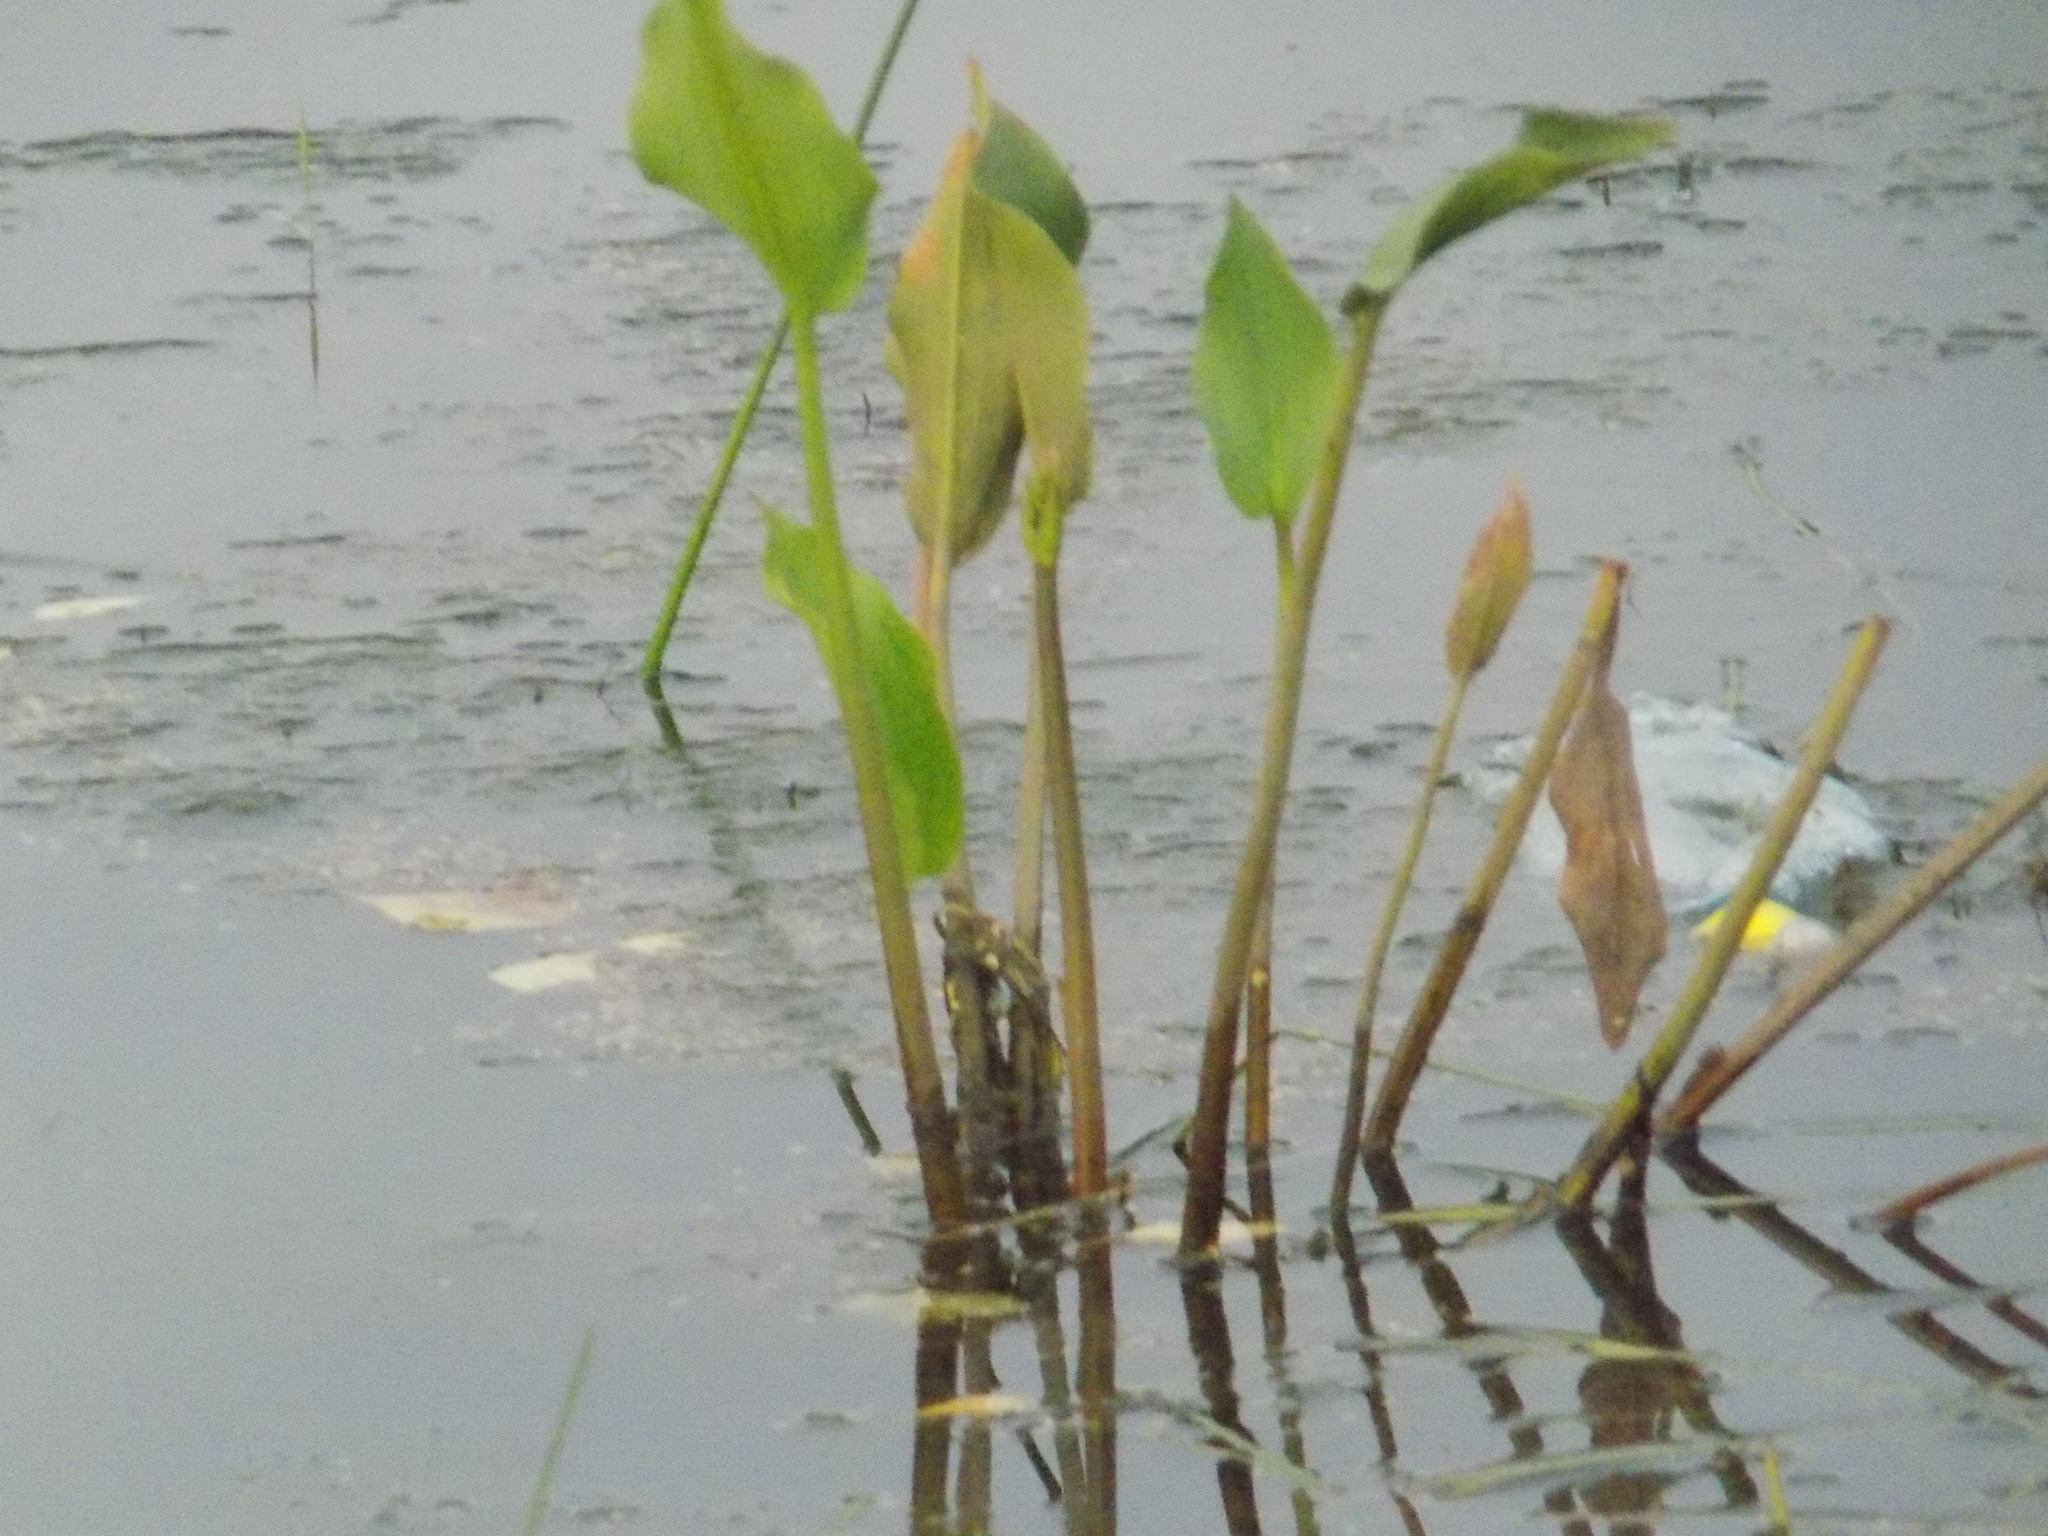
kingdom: Plantae
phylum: Tracheophyta
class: Liliopsida
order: Alismatales
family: Alismataceae
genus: Alisma
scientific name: Alisma plantago-aquatica
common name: Water-plantain
